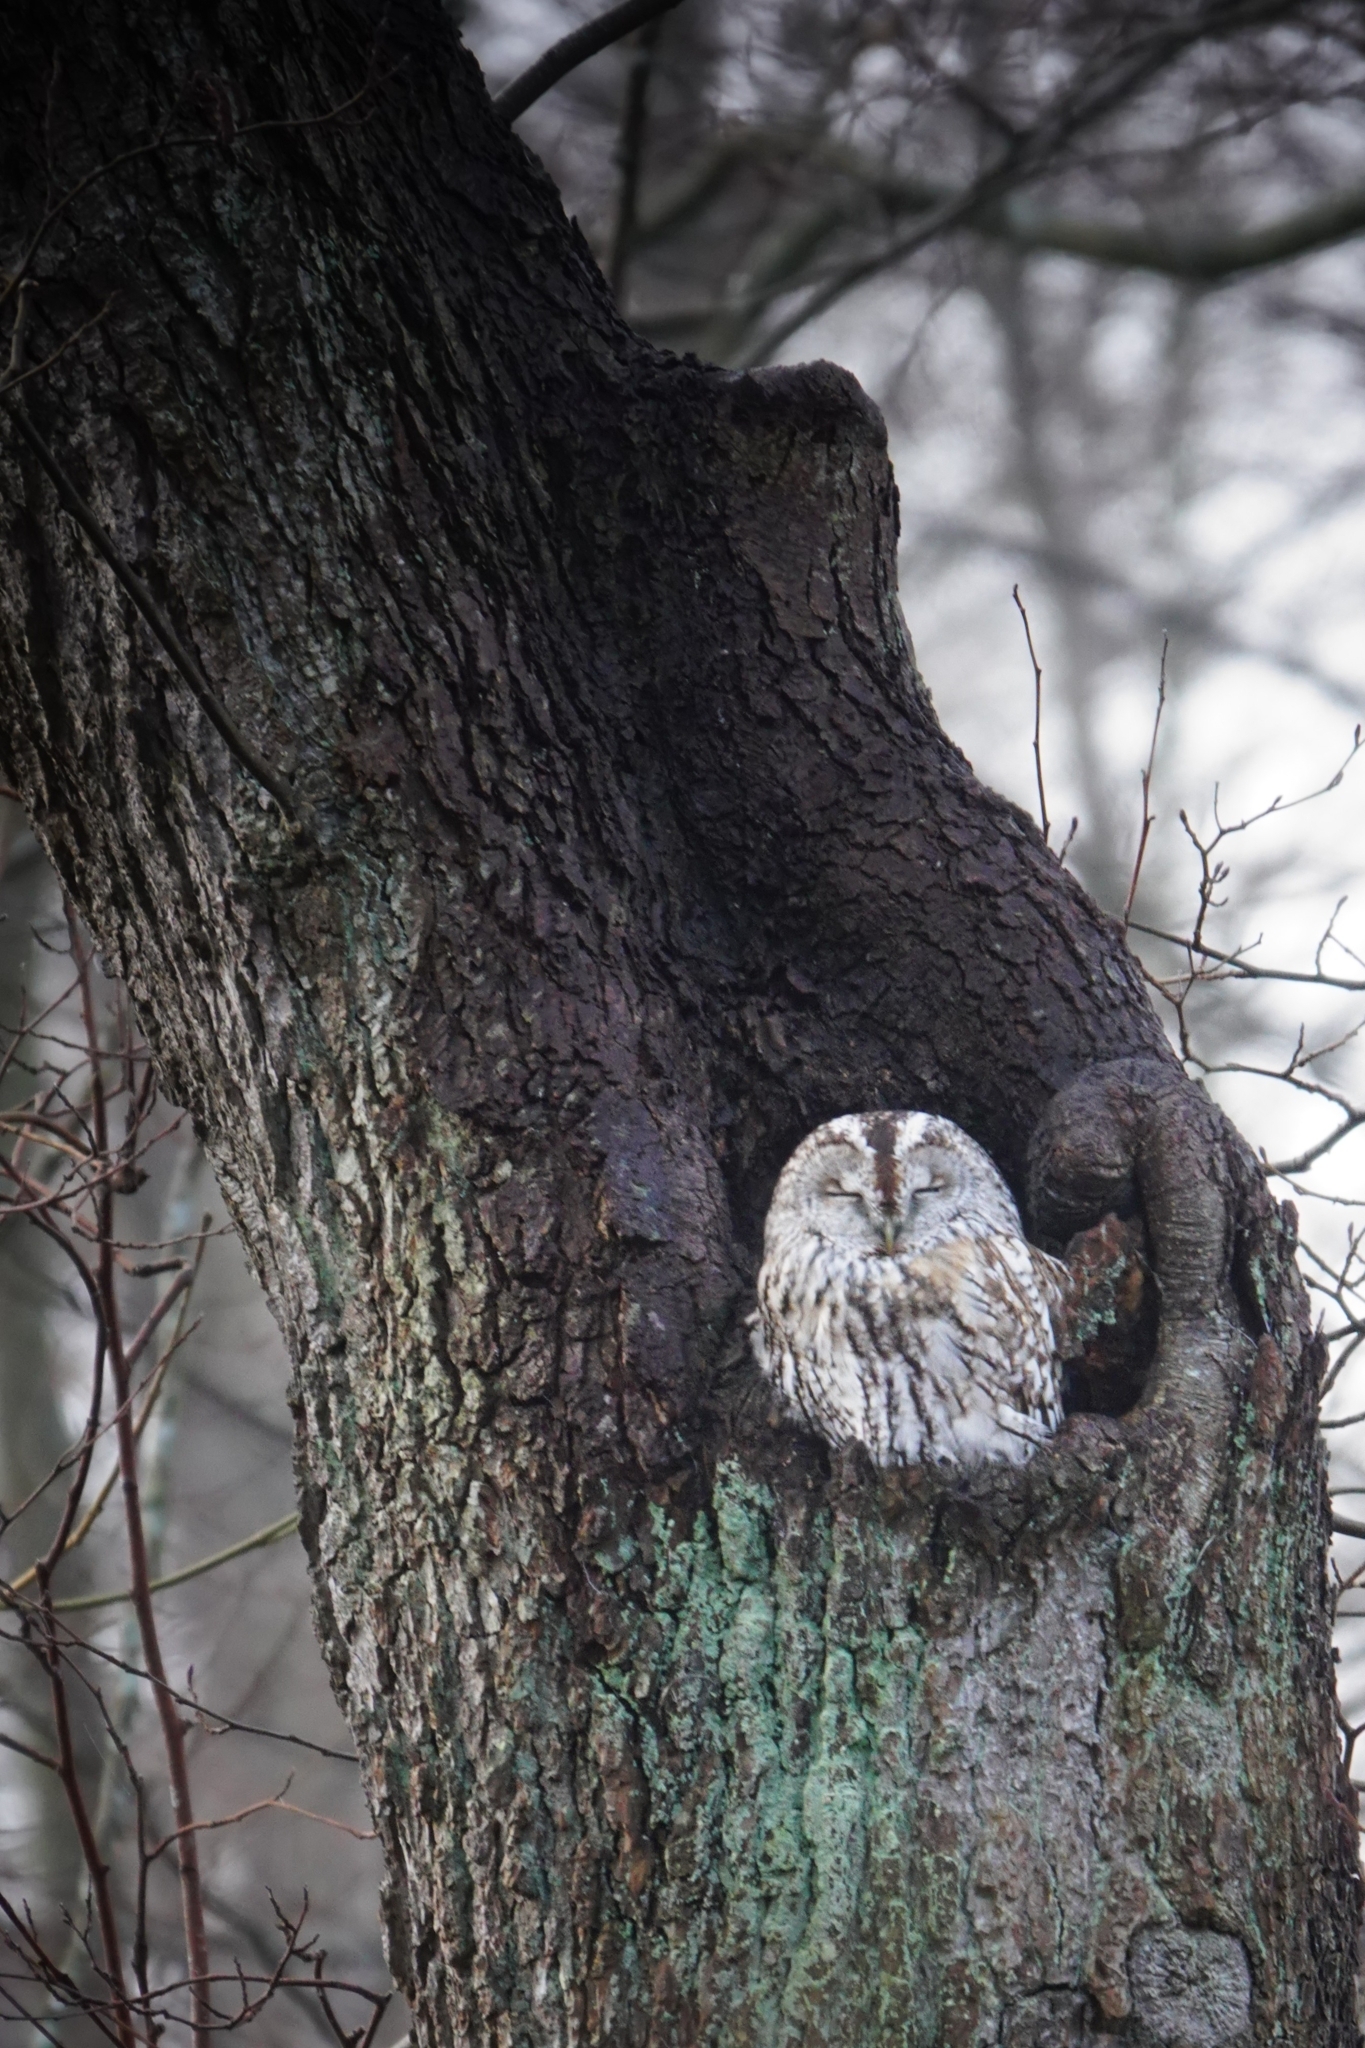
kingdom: Animalia
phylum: Chordata
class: Aves
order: Strigiformes
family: Strigidae
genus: Strix
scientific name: Strix aluco
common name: Tawny owl
